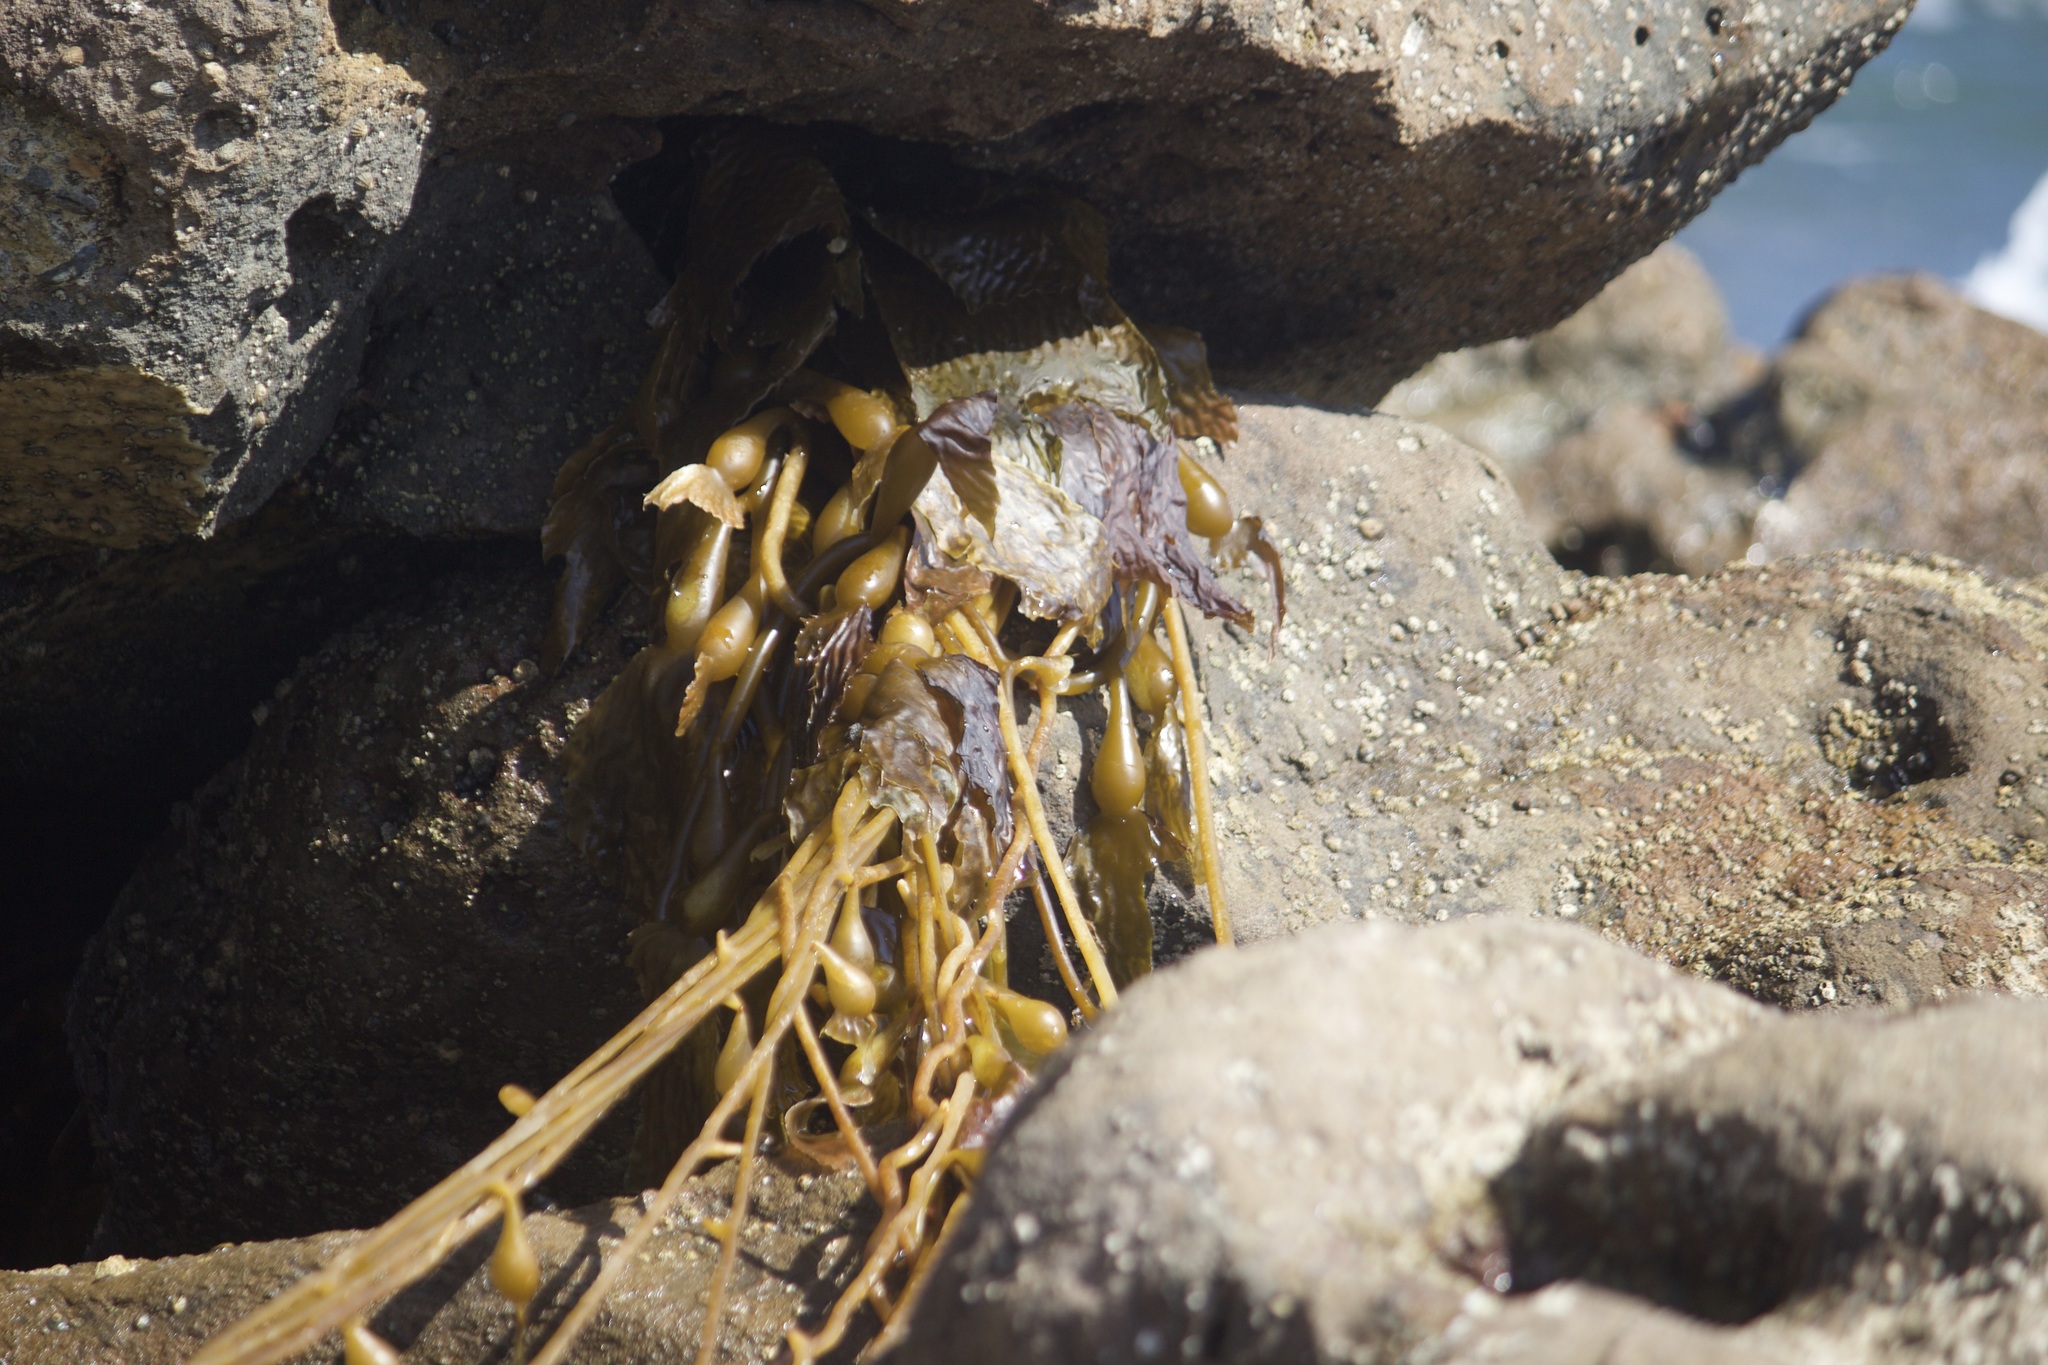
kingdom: Chromista
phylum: Ochrophyta
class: Phaeophyceae
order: Laminariales
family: Laminariaceae
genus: Macrocystis
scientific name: Macrocystis pyrifera
